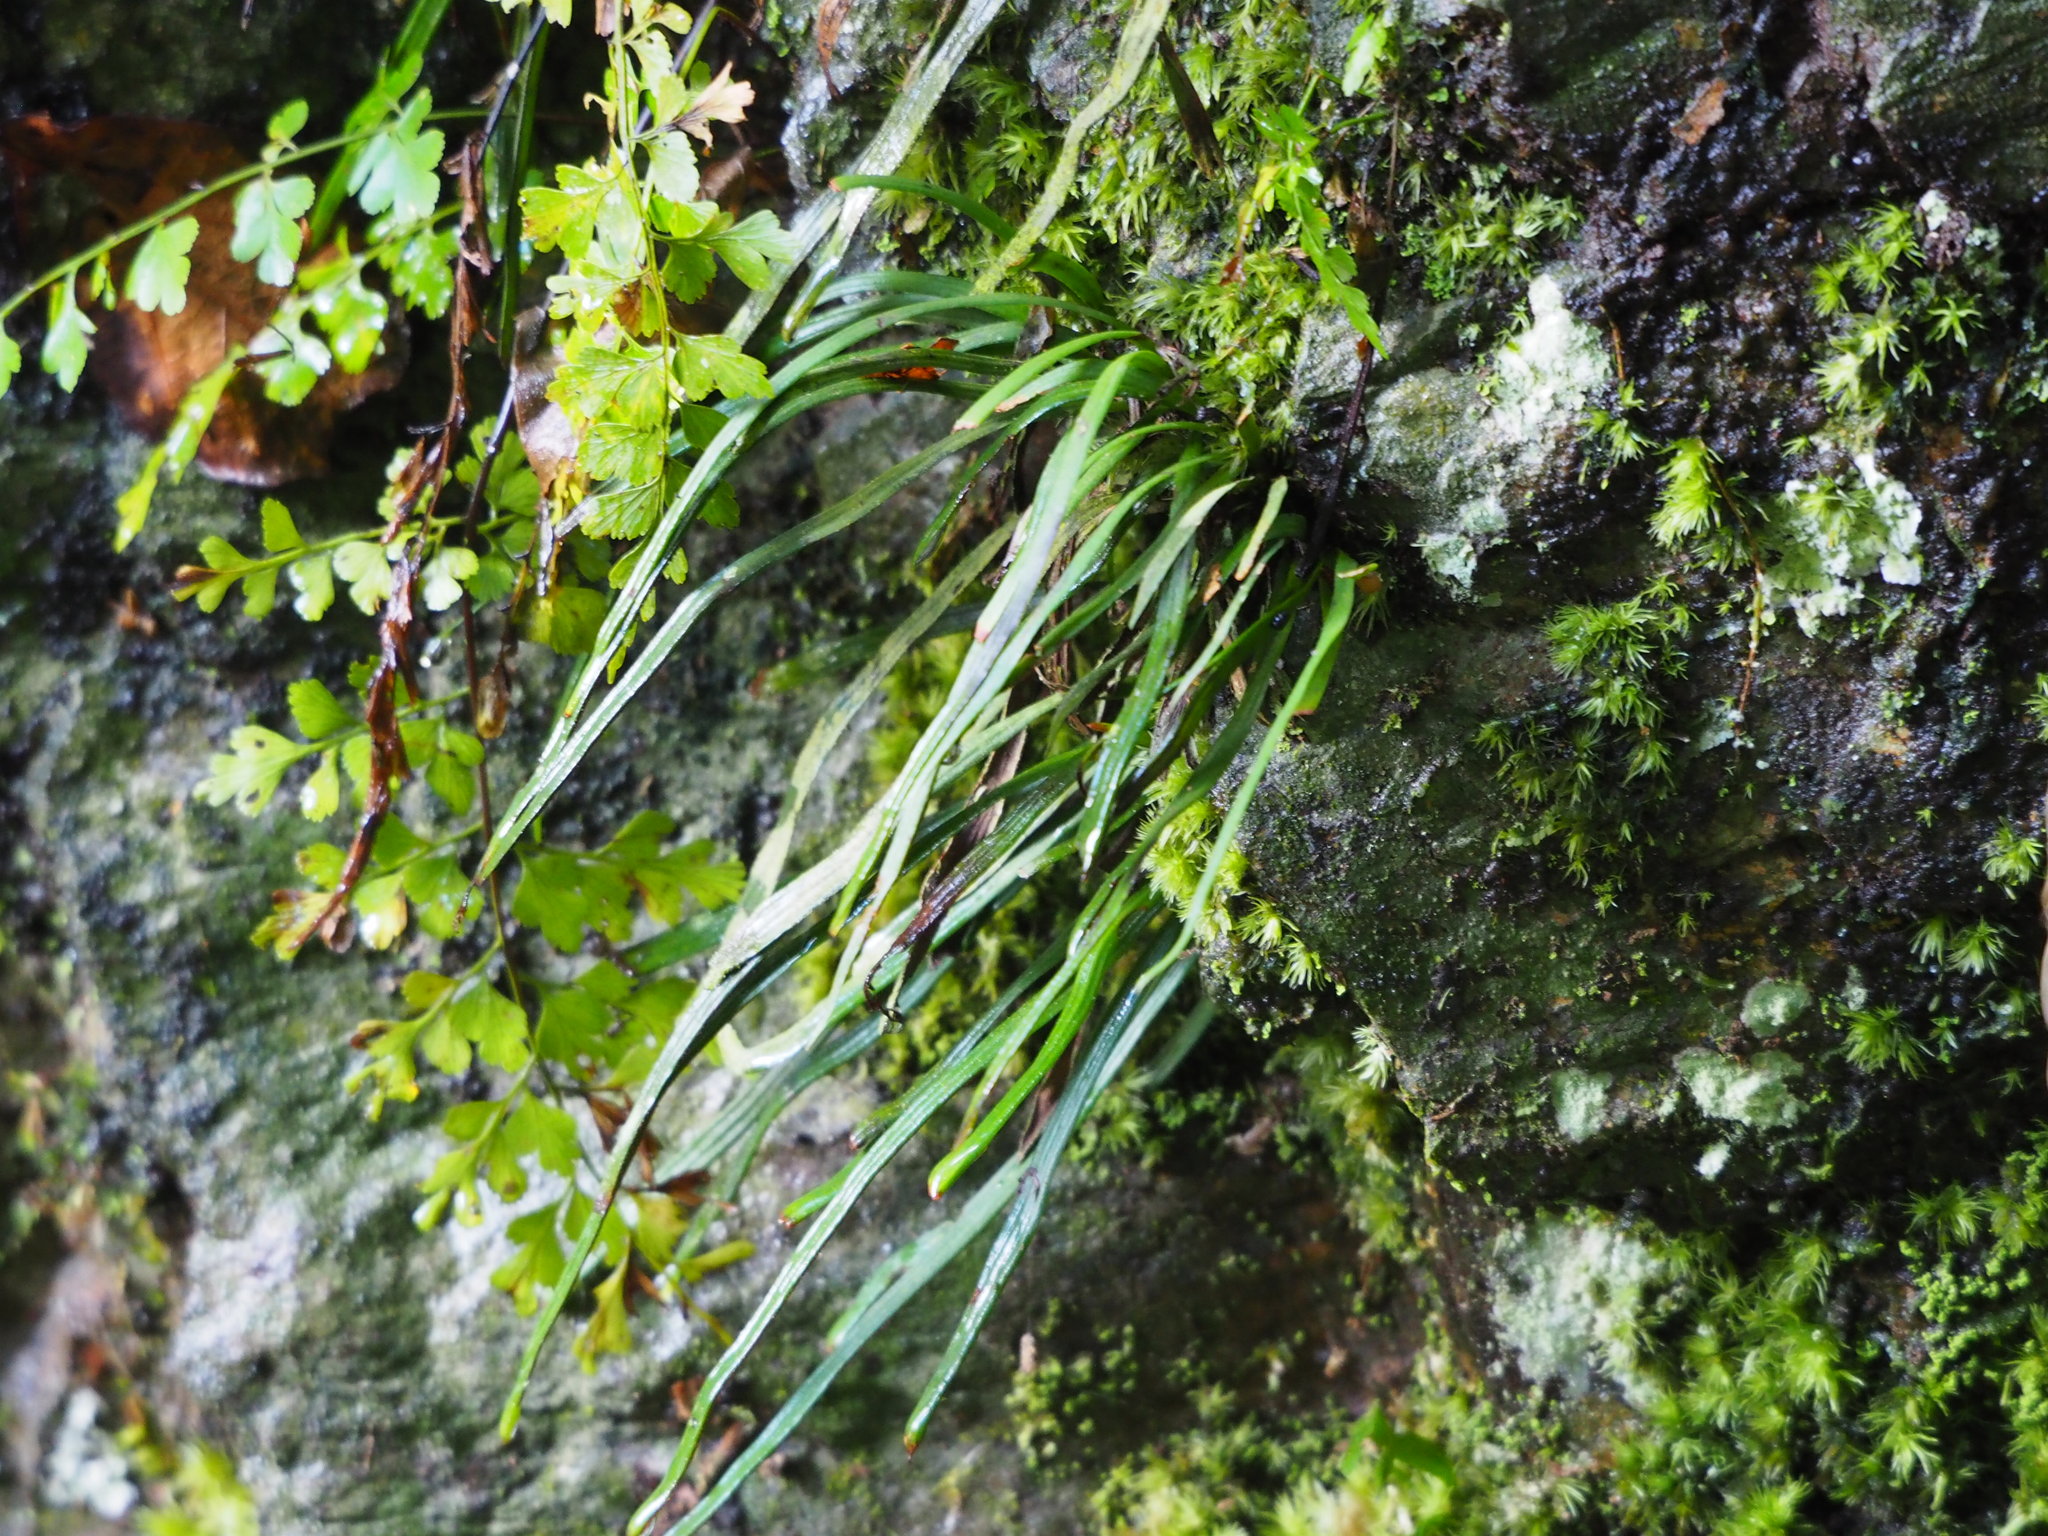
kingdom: Plantae
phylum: Tracheophyta
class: Polypodiopsida
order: Polypodiales
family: Pteridaceae
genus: Haplopteris
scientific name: Haplopteris anguste-elongata
